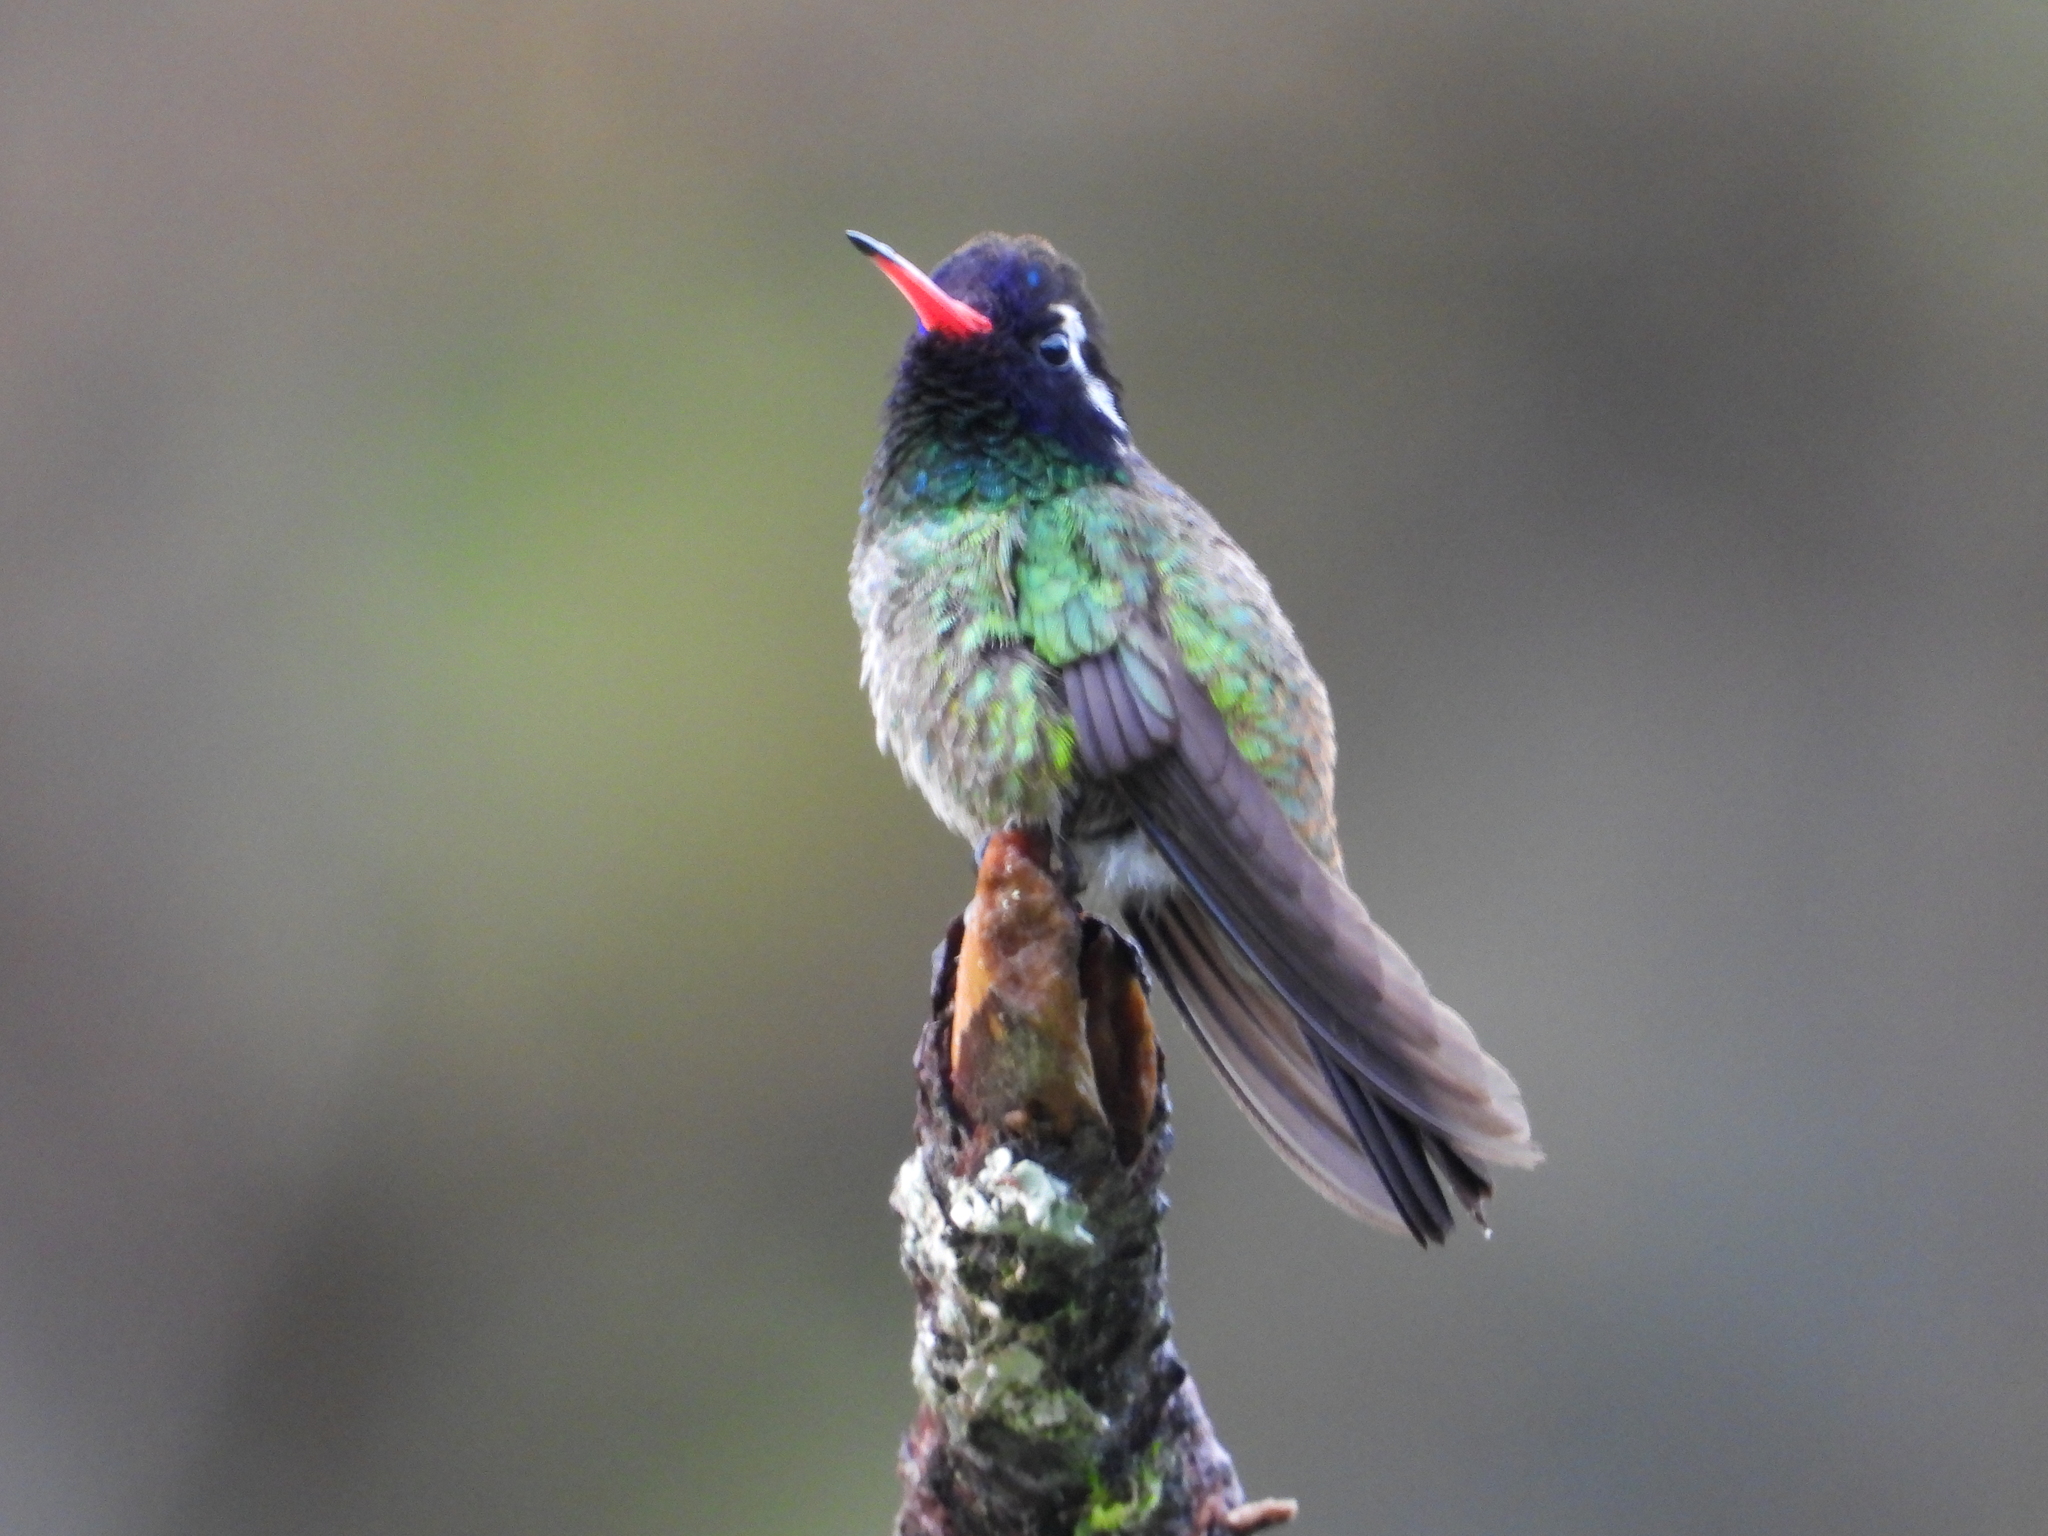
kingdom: Animalia
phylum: Chordata
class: Aves
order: Apodiformes
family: Trochilidae
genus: Basilinna
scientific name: Basilinna leucotis
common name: White-eared hummingbird
